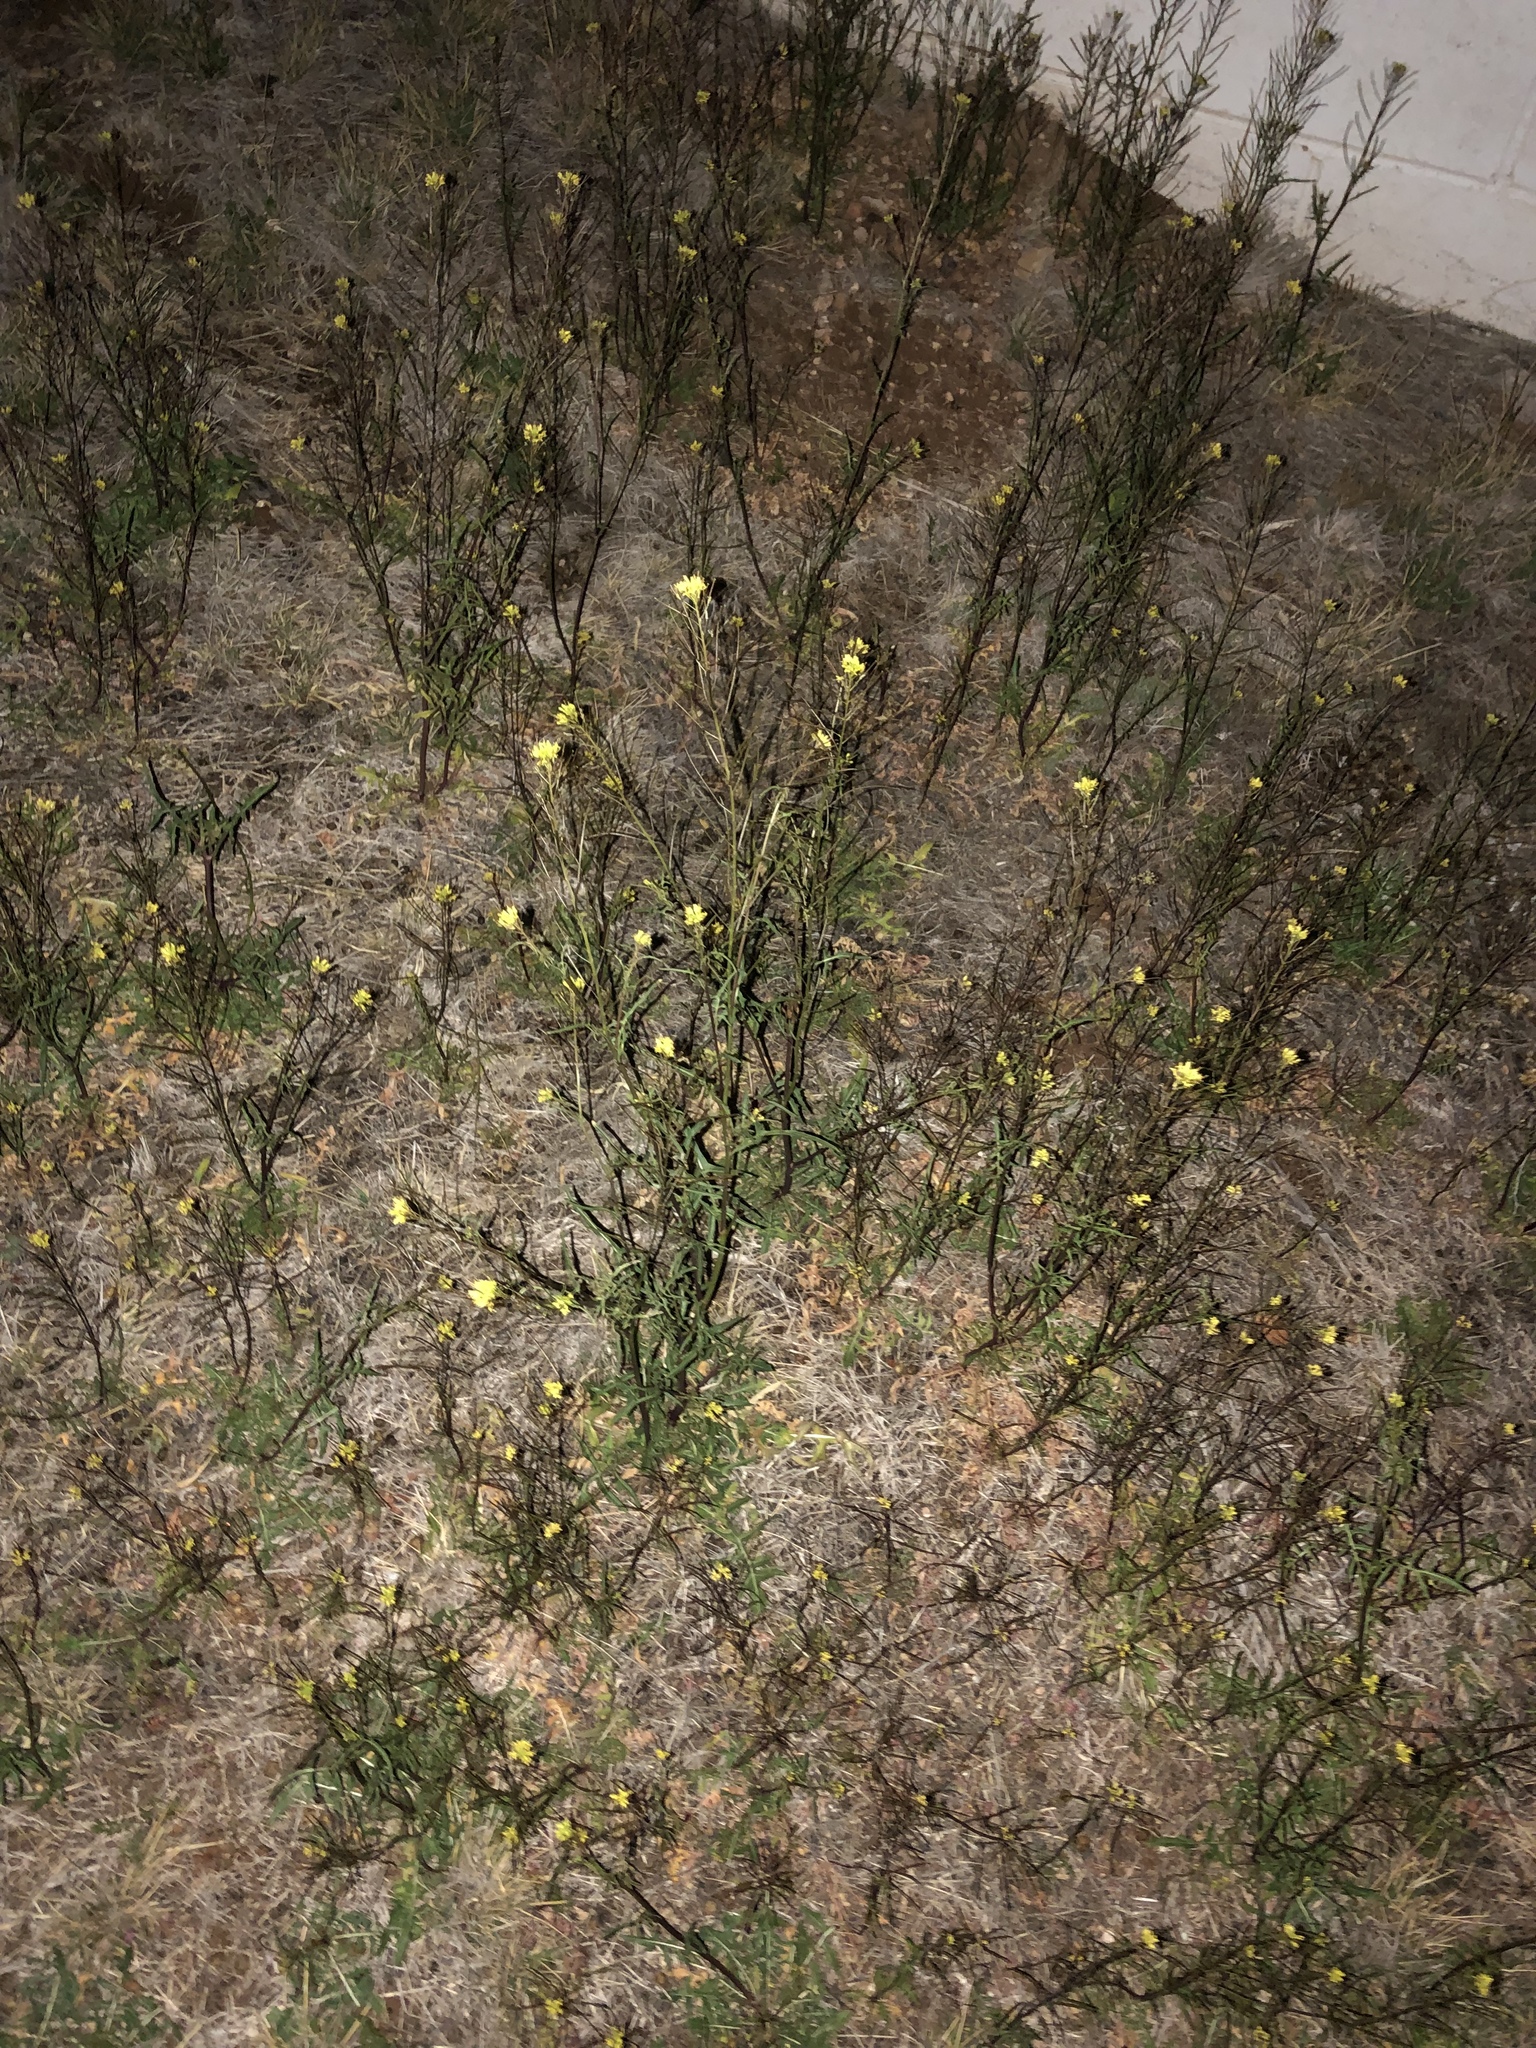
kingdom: Plantae
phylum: Tracheophyta
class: Magnoliopsida
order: Brassicales
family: Brassicaceae
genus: Sisymbrium
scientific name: Sisymbrium irio
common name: London rocket
